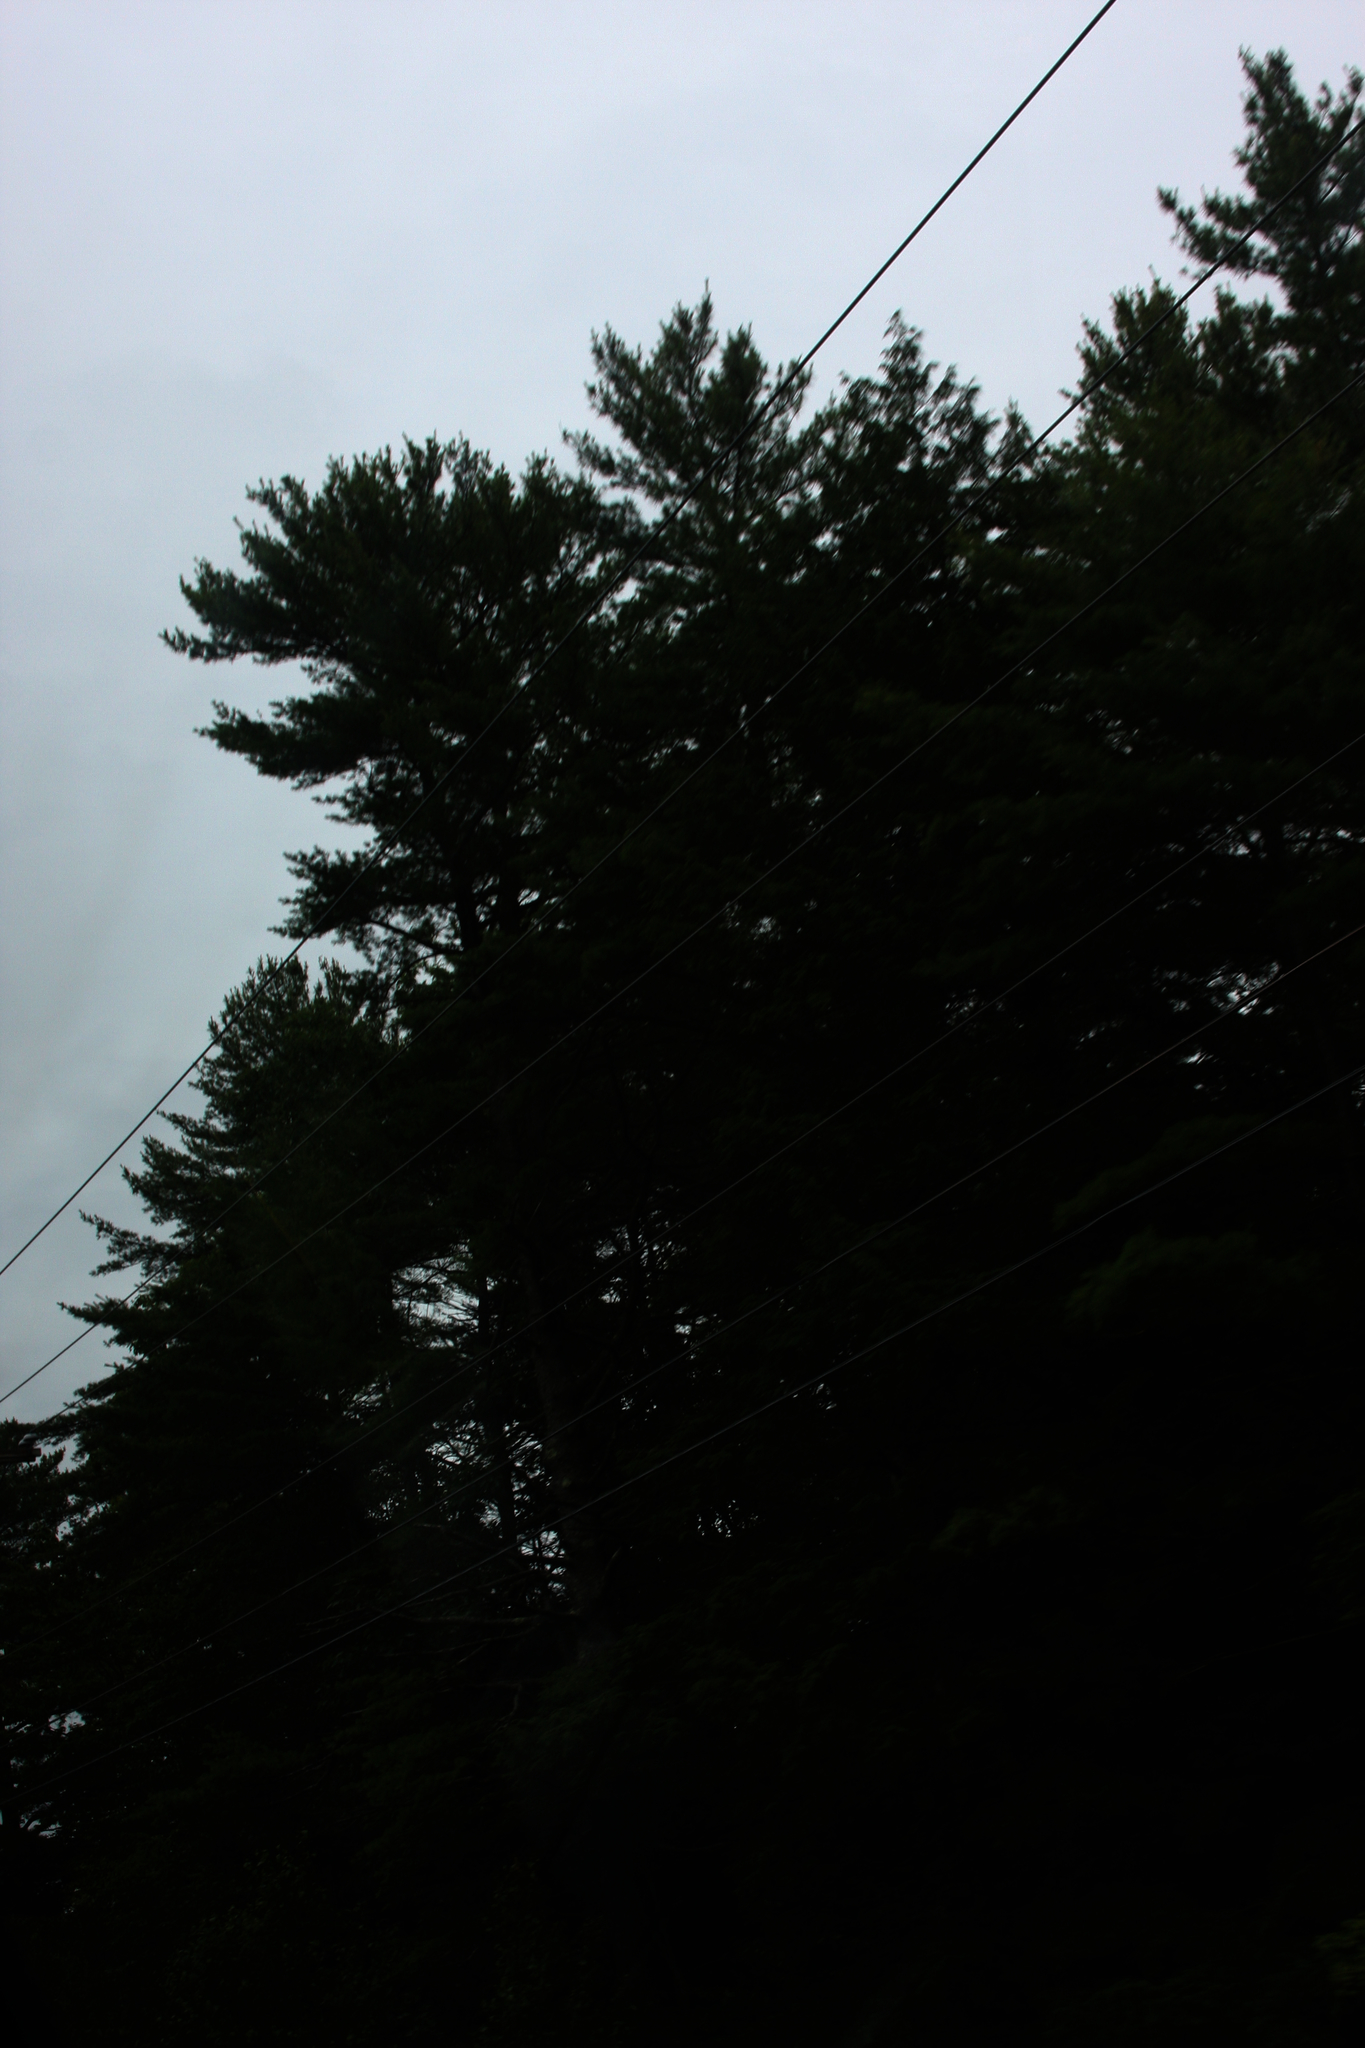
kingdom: Plantae
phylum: Tracheophyta
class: Pinopsida
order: Pinales
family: Pinaceae
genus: Pinus
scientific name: Pinus strobus
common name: Weymouth pine
